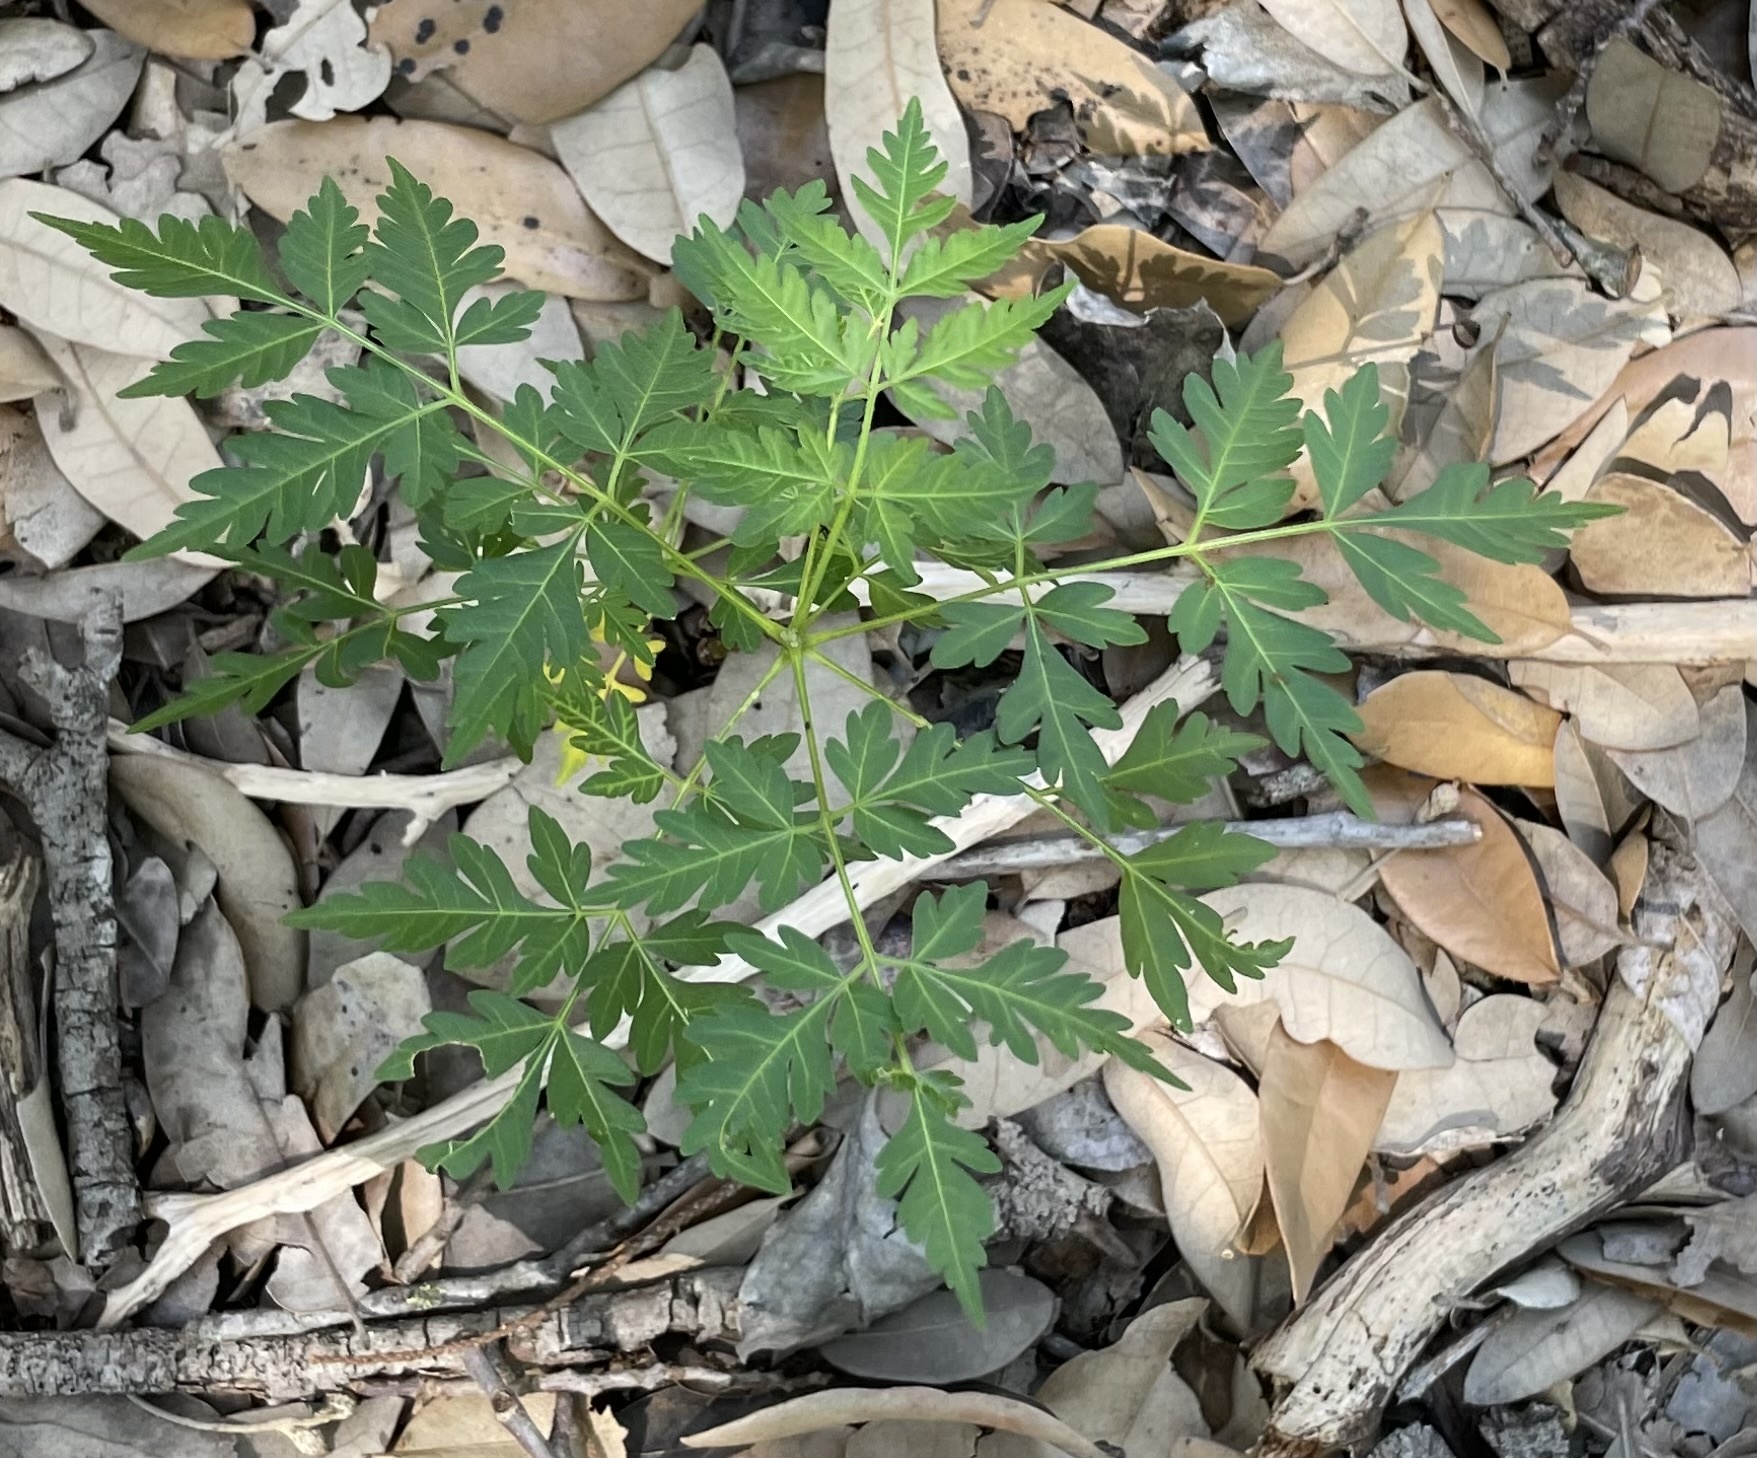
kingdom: Plantae
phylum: Tracheophyta
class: Magnoliopsida
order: Sapindales
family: Meliaceae
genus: Melia
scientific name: Melia azedarach
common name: Chinaberrytree
